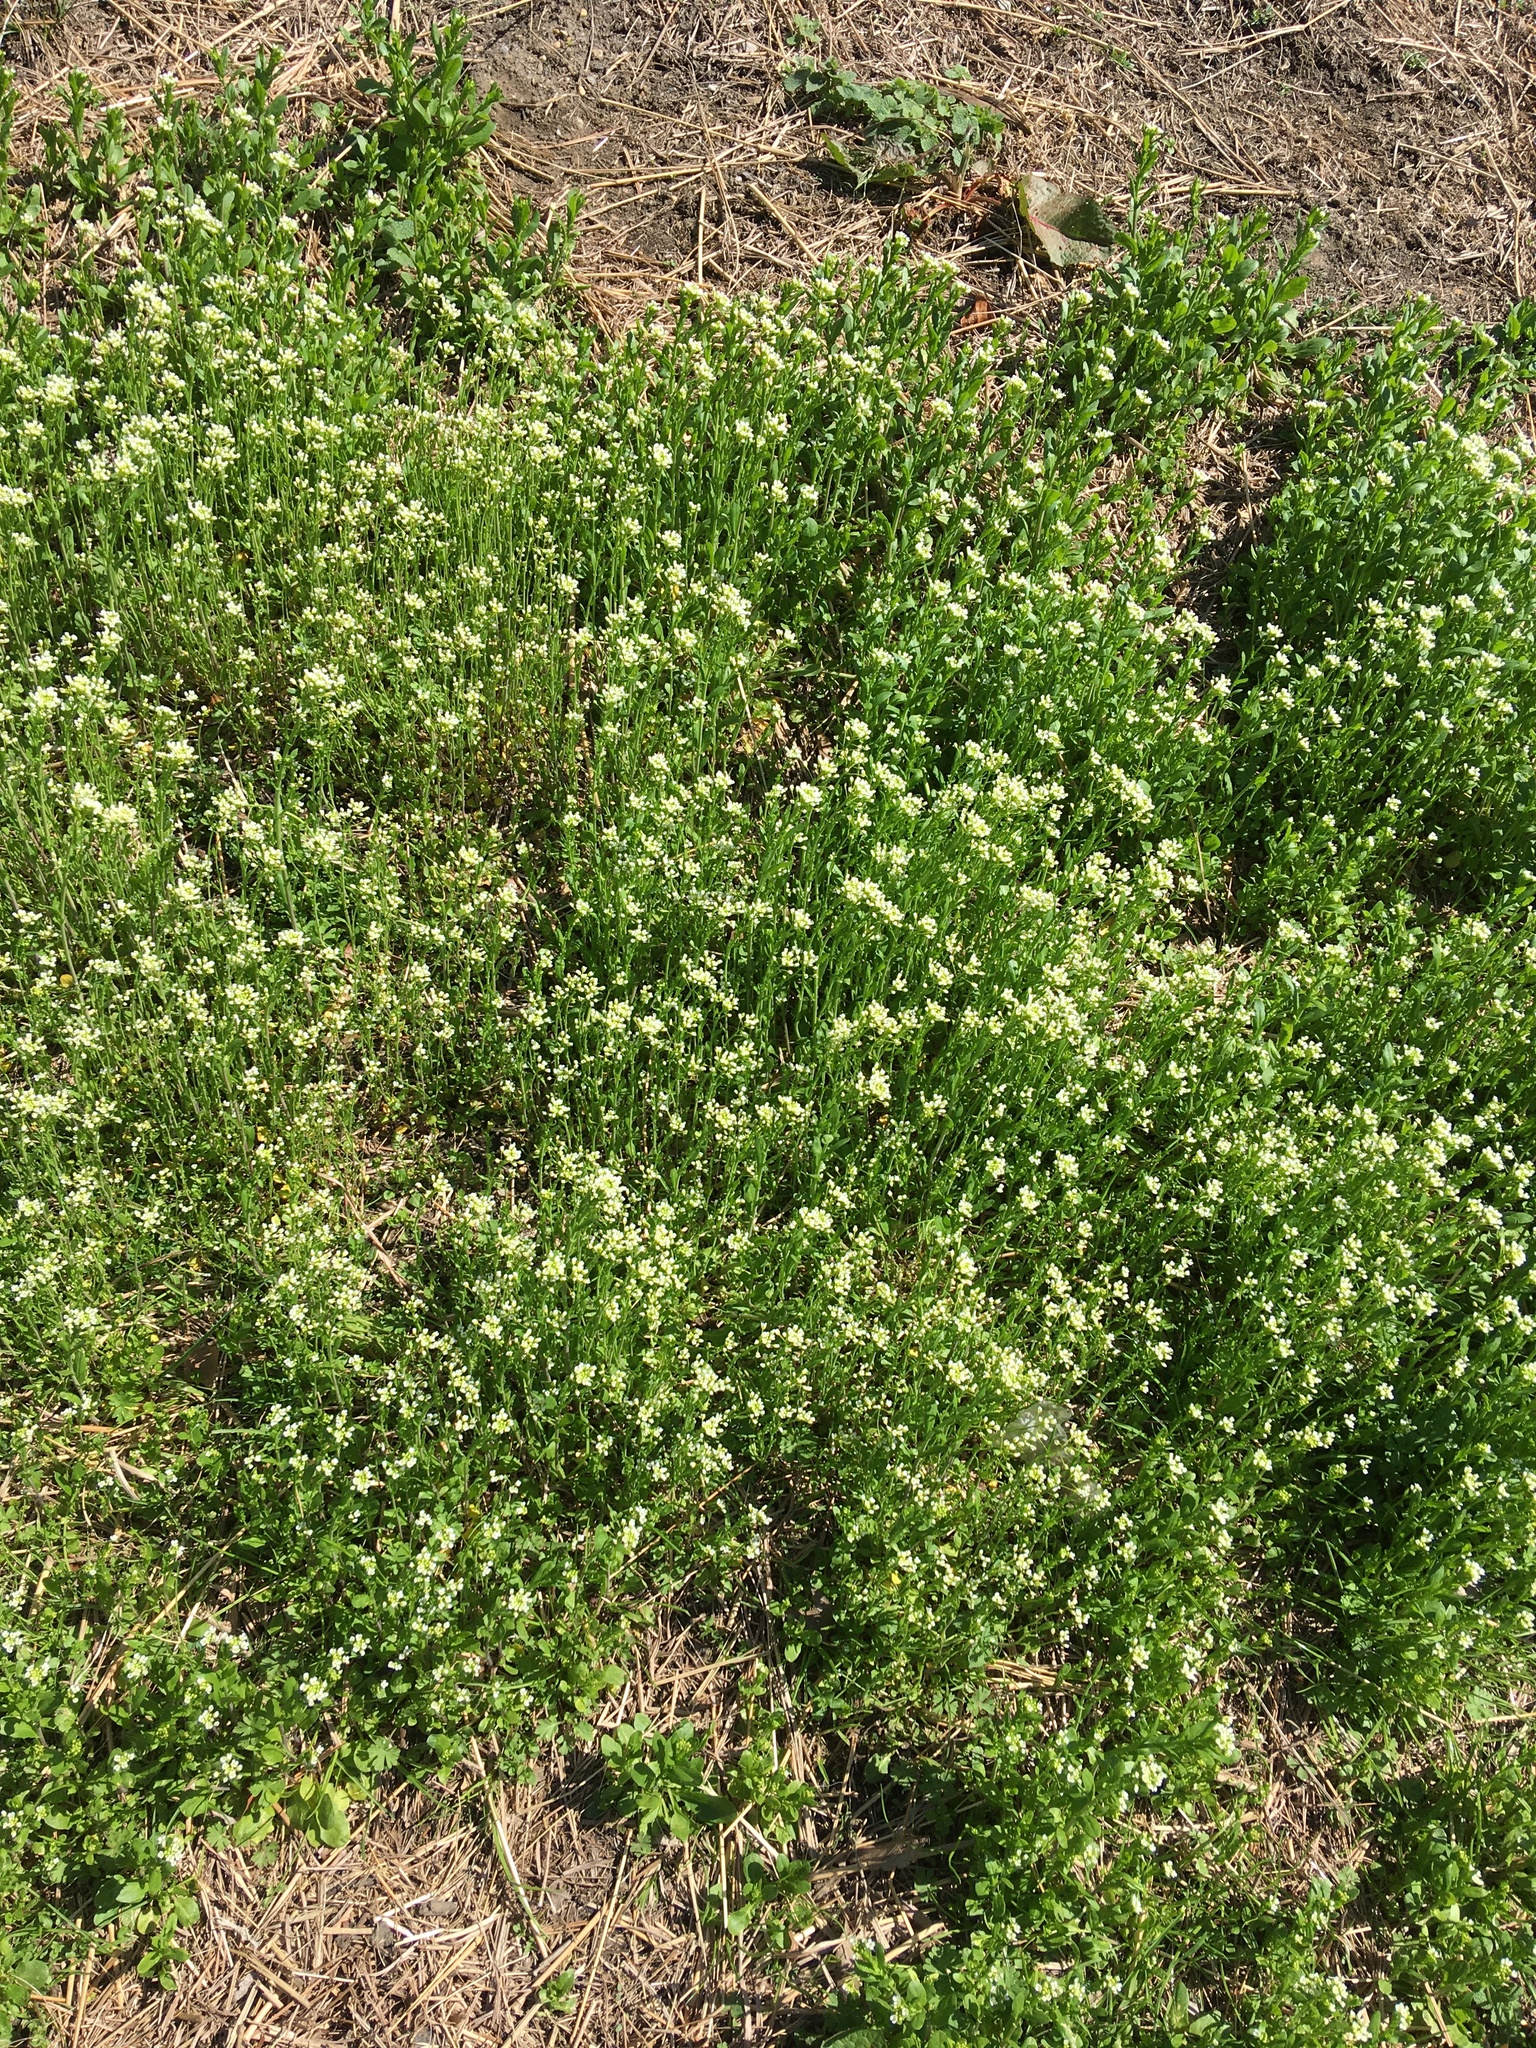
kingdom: Plantae
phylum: Tracheophyta
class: Magnoliopsida
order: Brassicales
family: Brassicaceae
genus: Mummenhoffia
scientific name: Mummenhoffia alliacea
